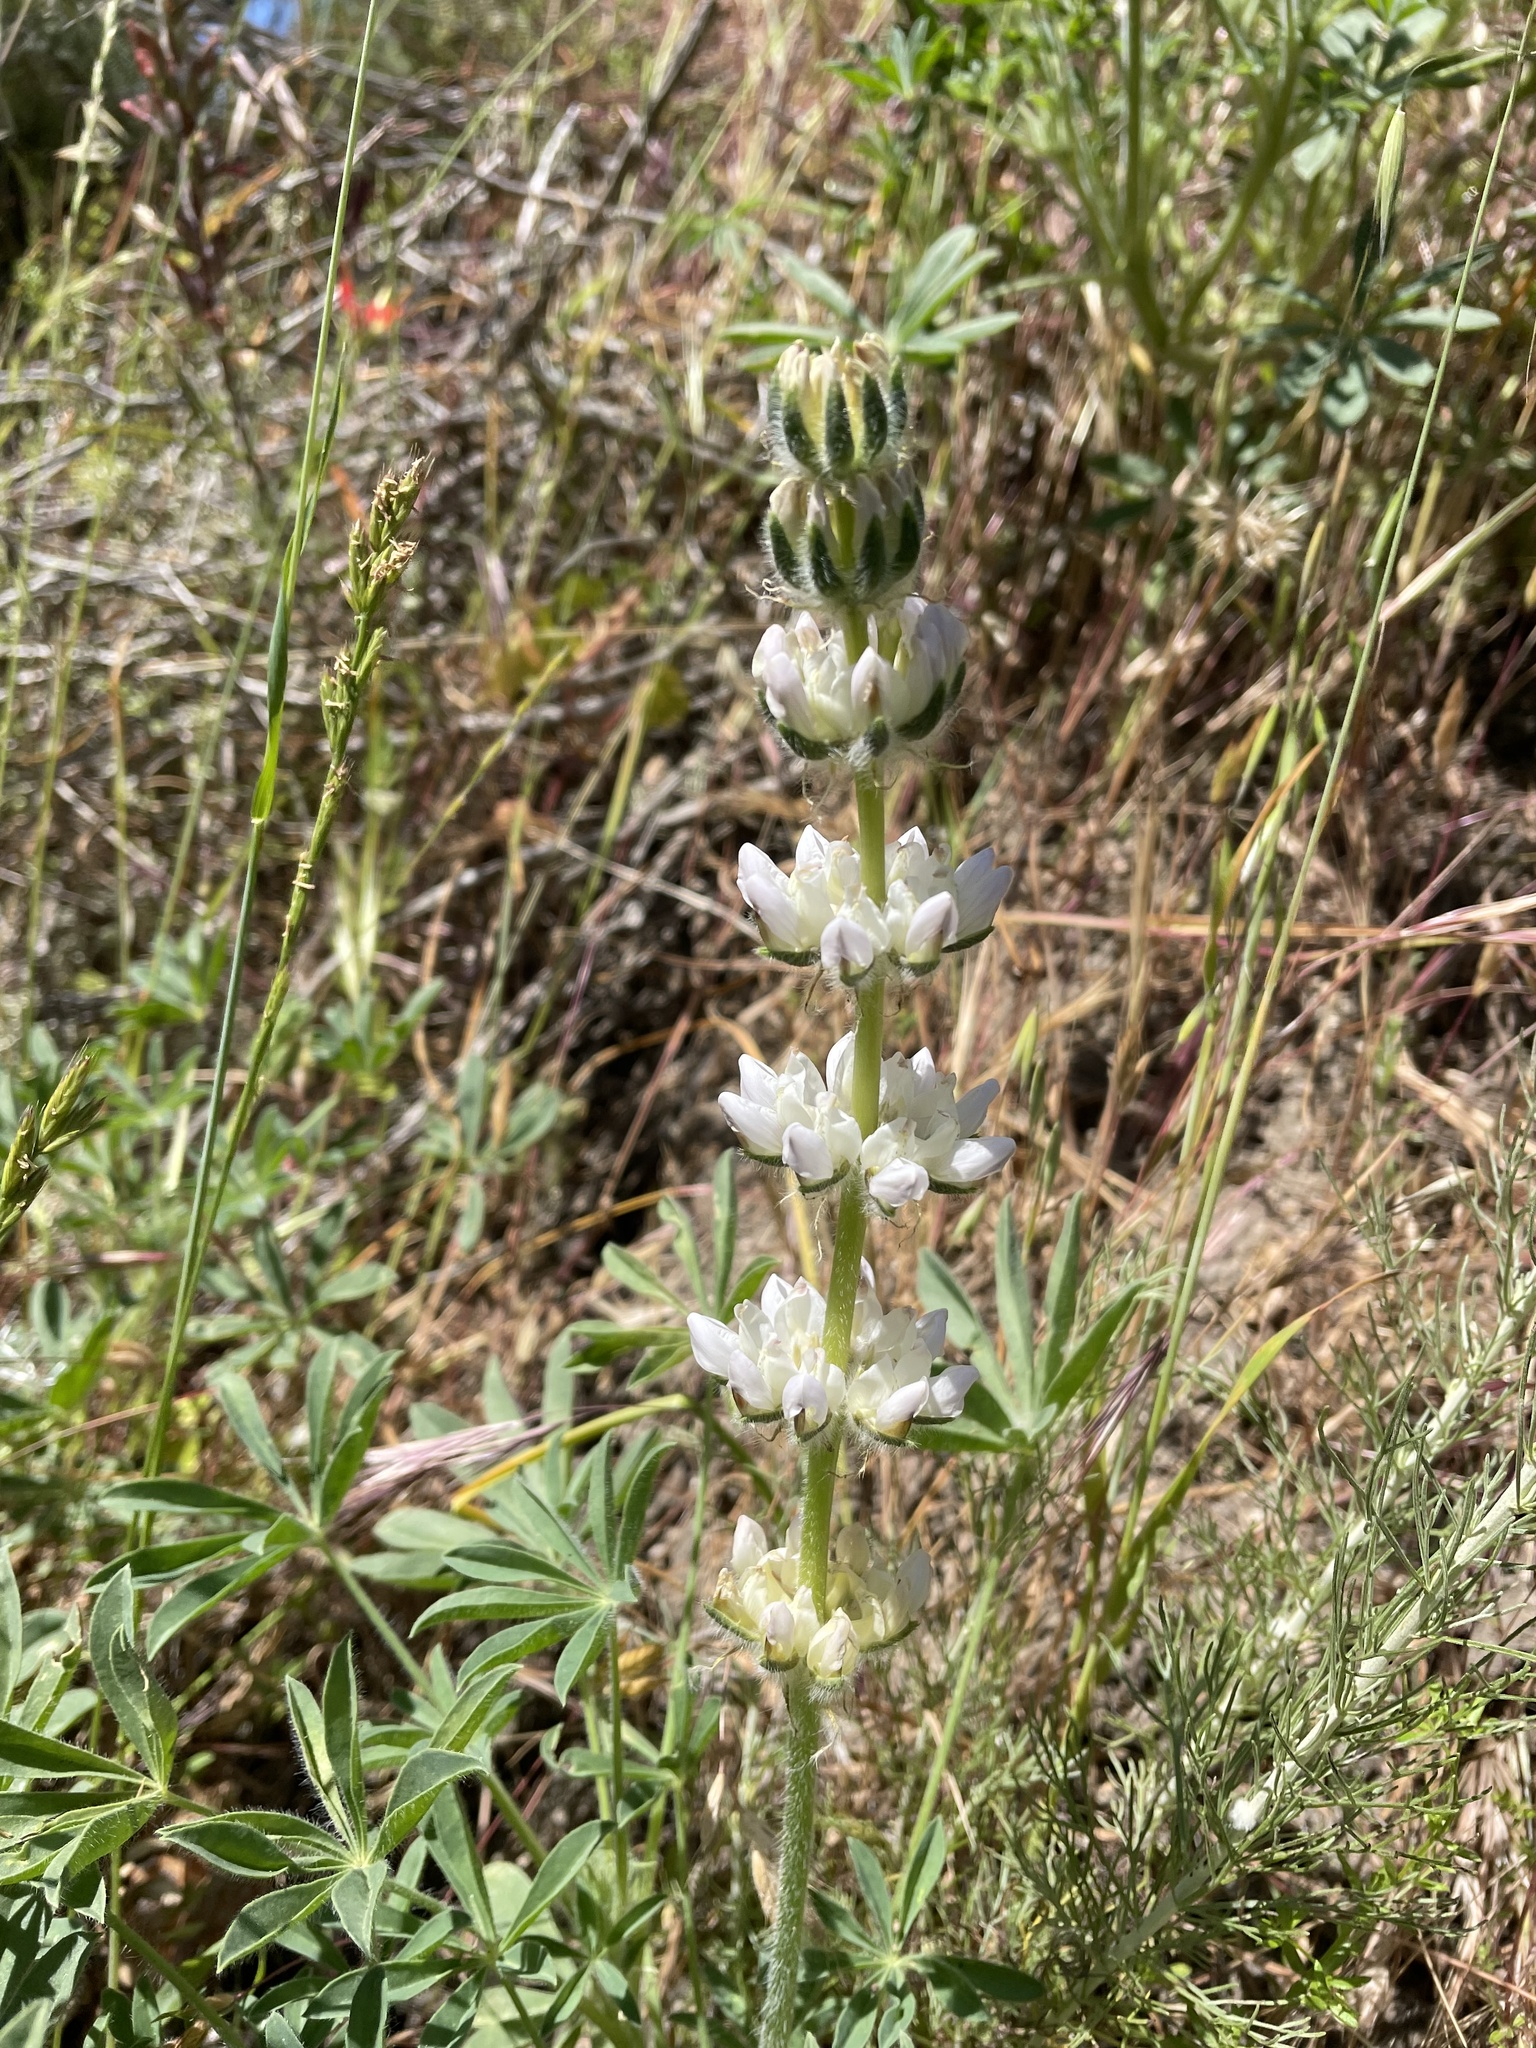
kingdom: Plantae
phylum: Tracheophyta
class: Magnoliopsida
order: Fabales
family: Fabaceae
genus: Lupinus
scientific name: Lupinus microcarpus
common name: Chick lupine
